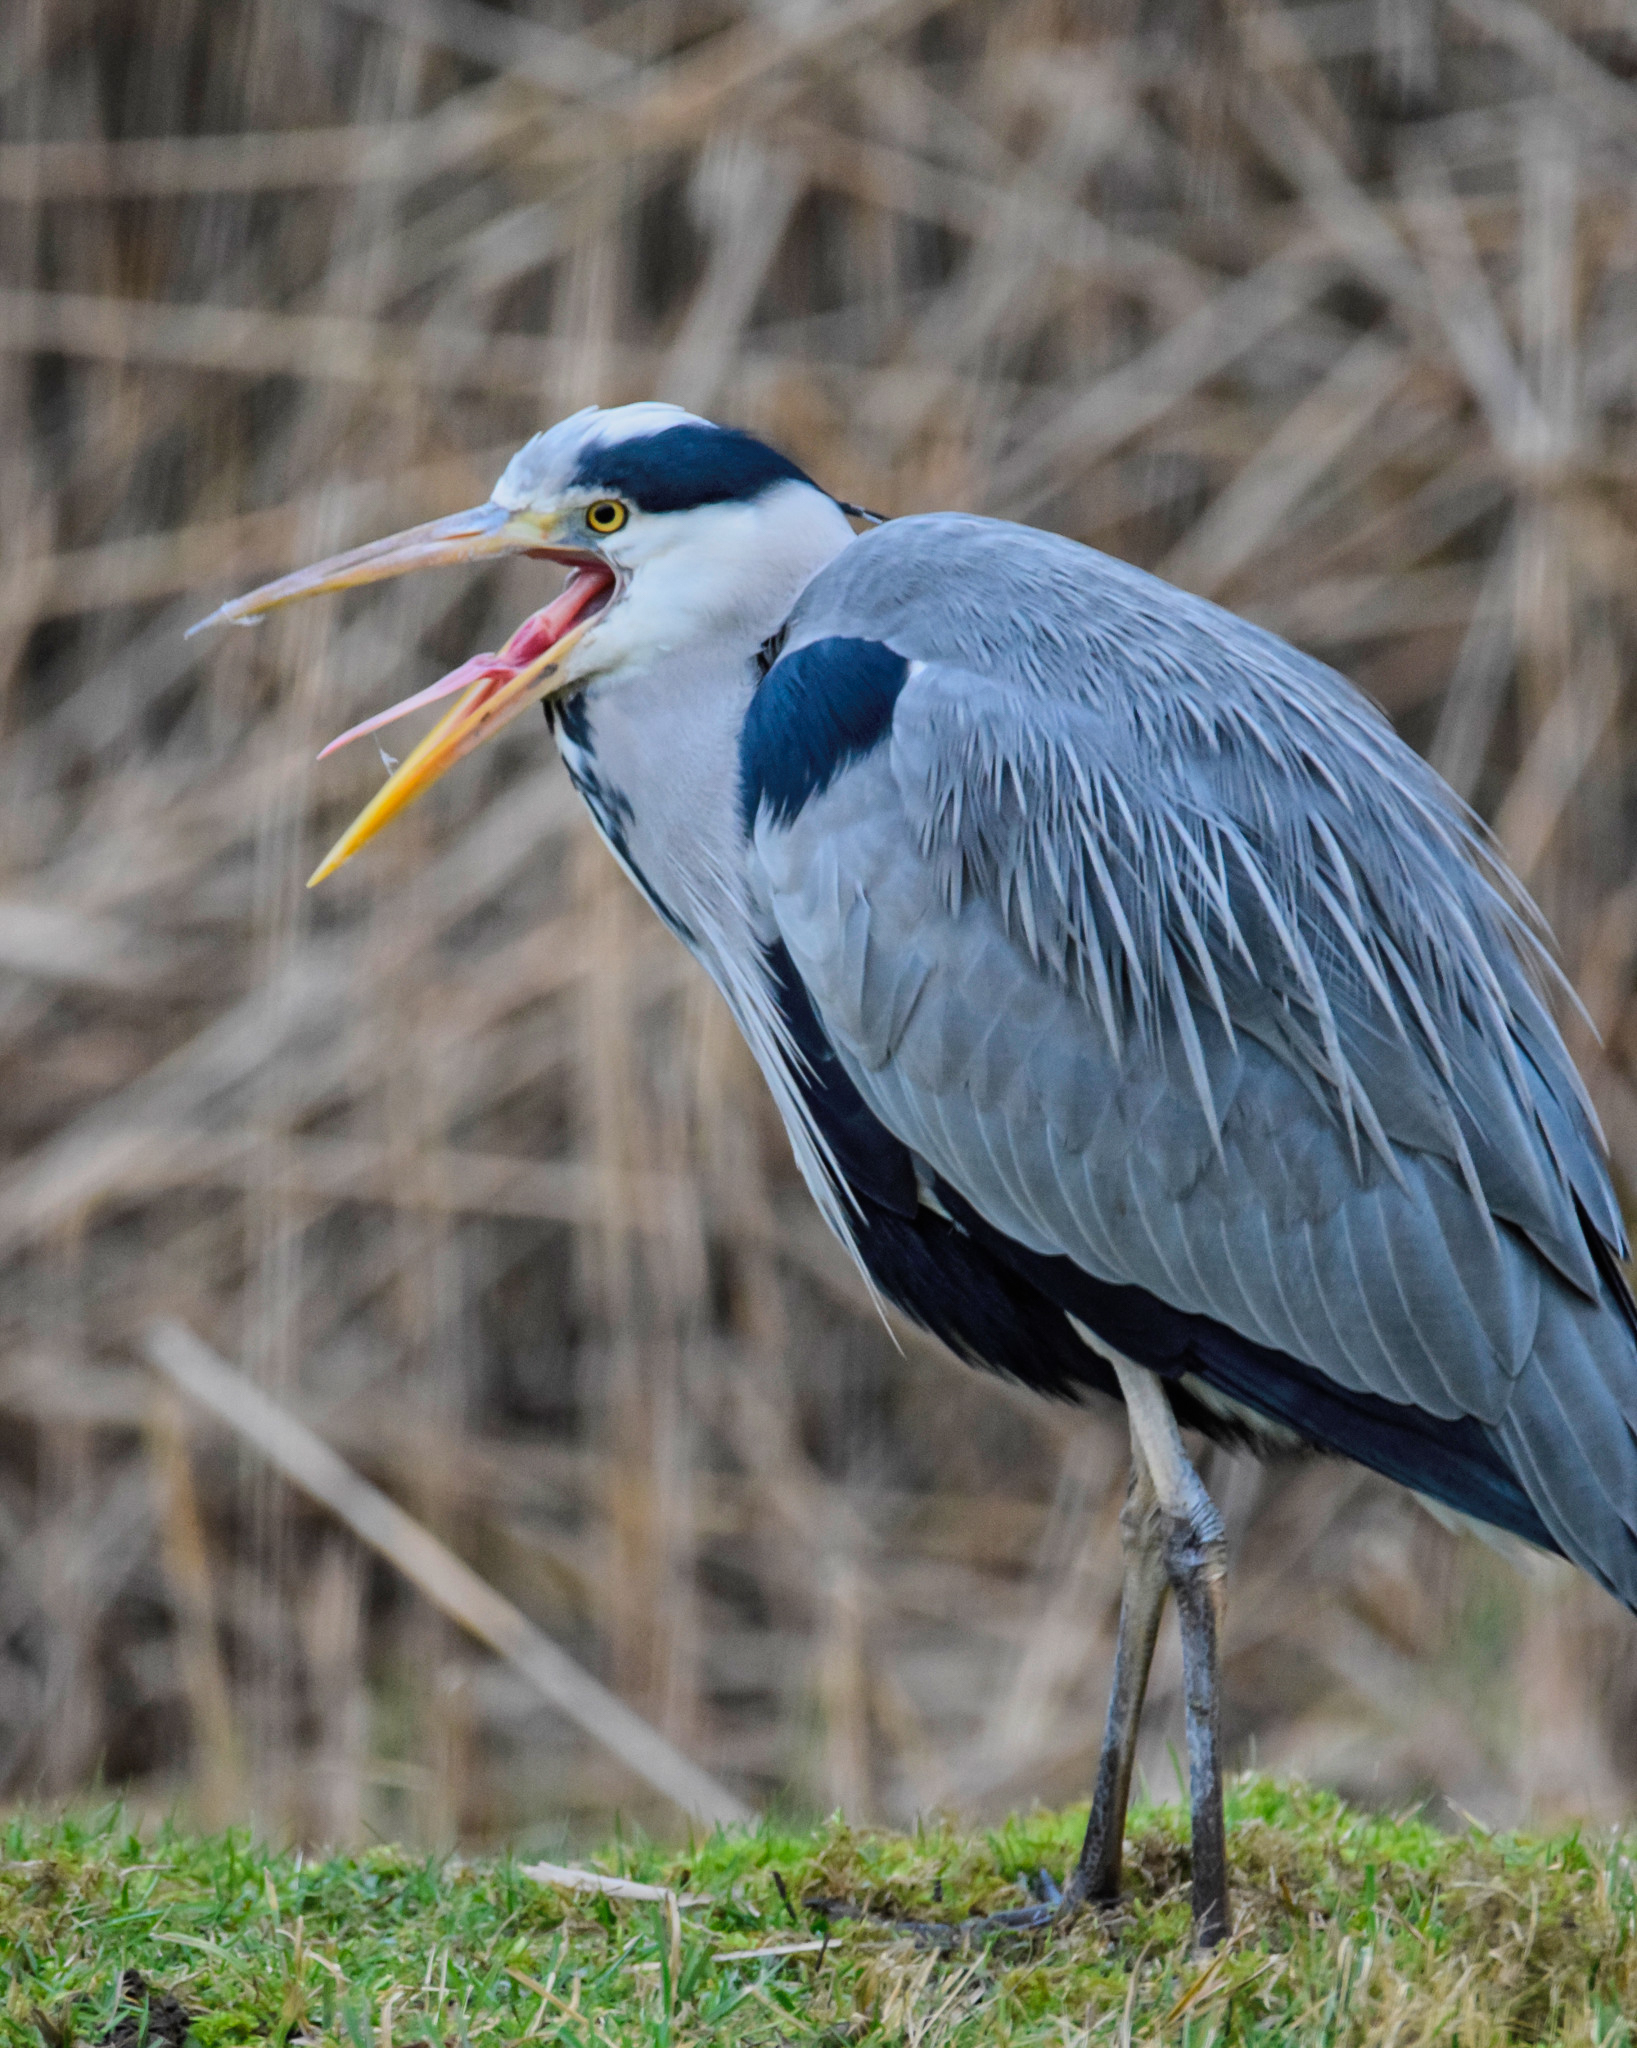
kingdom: Animalia
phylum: Chordata
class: Aves
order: Pelecaniformes
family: Ardeidae
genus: Ardea
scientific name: Ardea cinerea
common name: Grey heron
